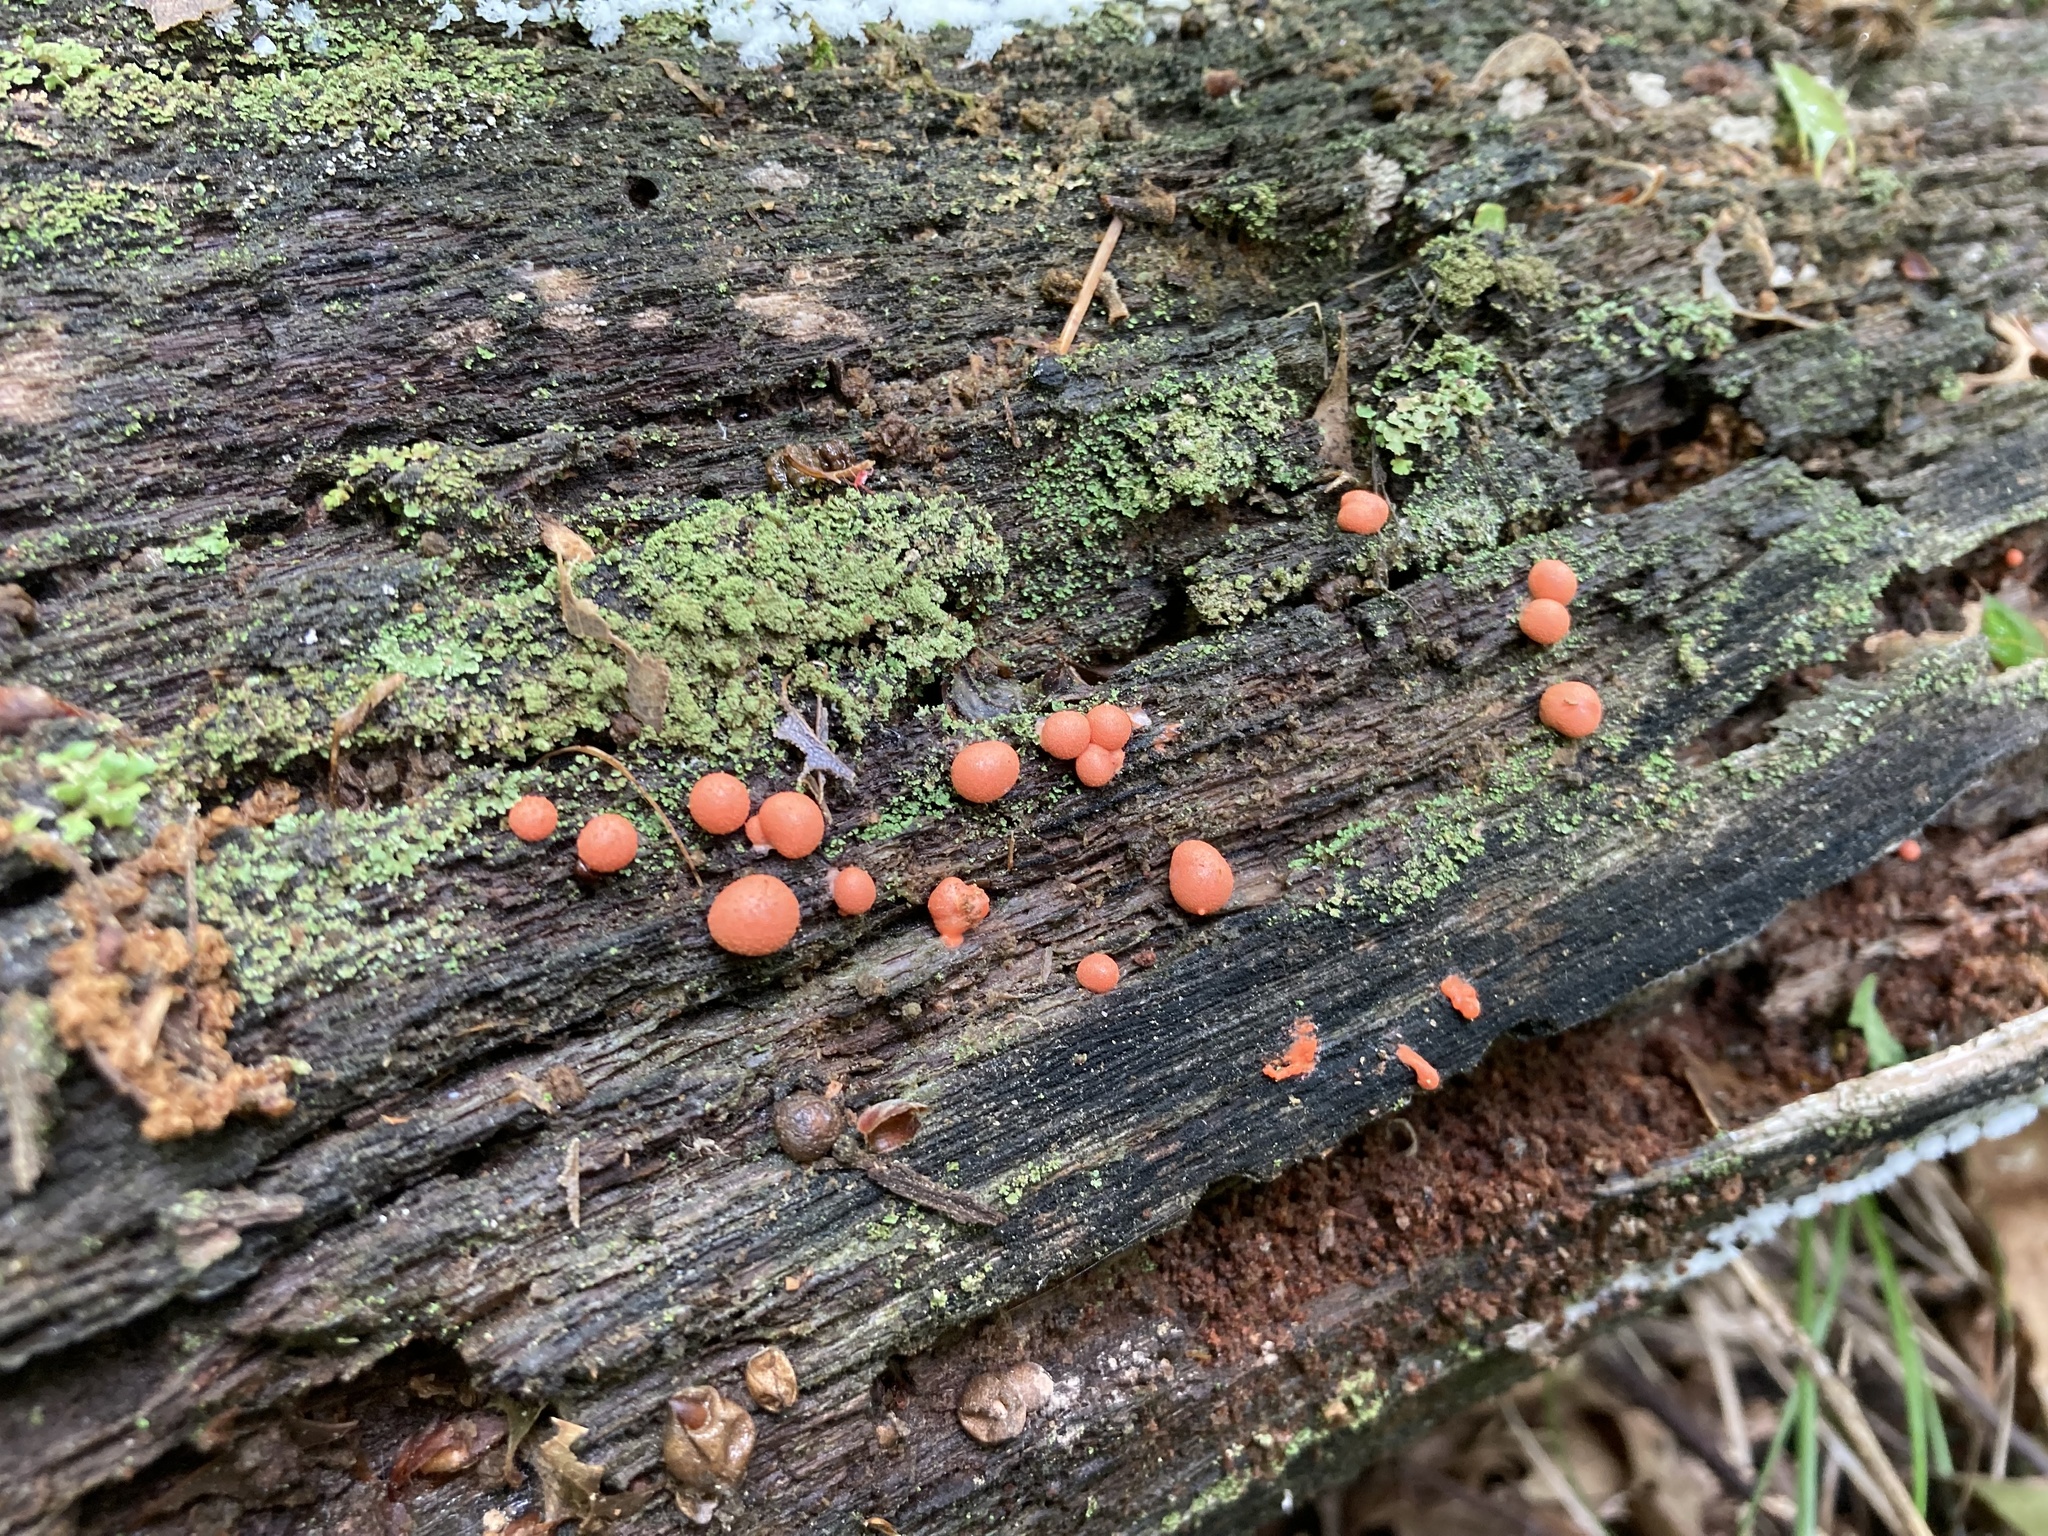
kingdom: Protozoa
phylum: Mycetozoa
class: Myxomycetes
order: Cribrariales
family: Tubiferaceae
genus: Lycogala
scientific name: Lycogala epidendrum
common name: Wolf's milk
